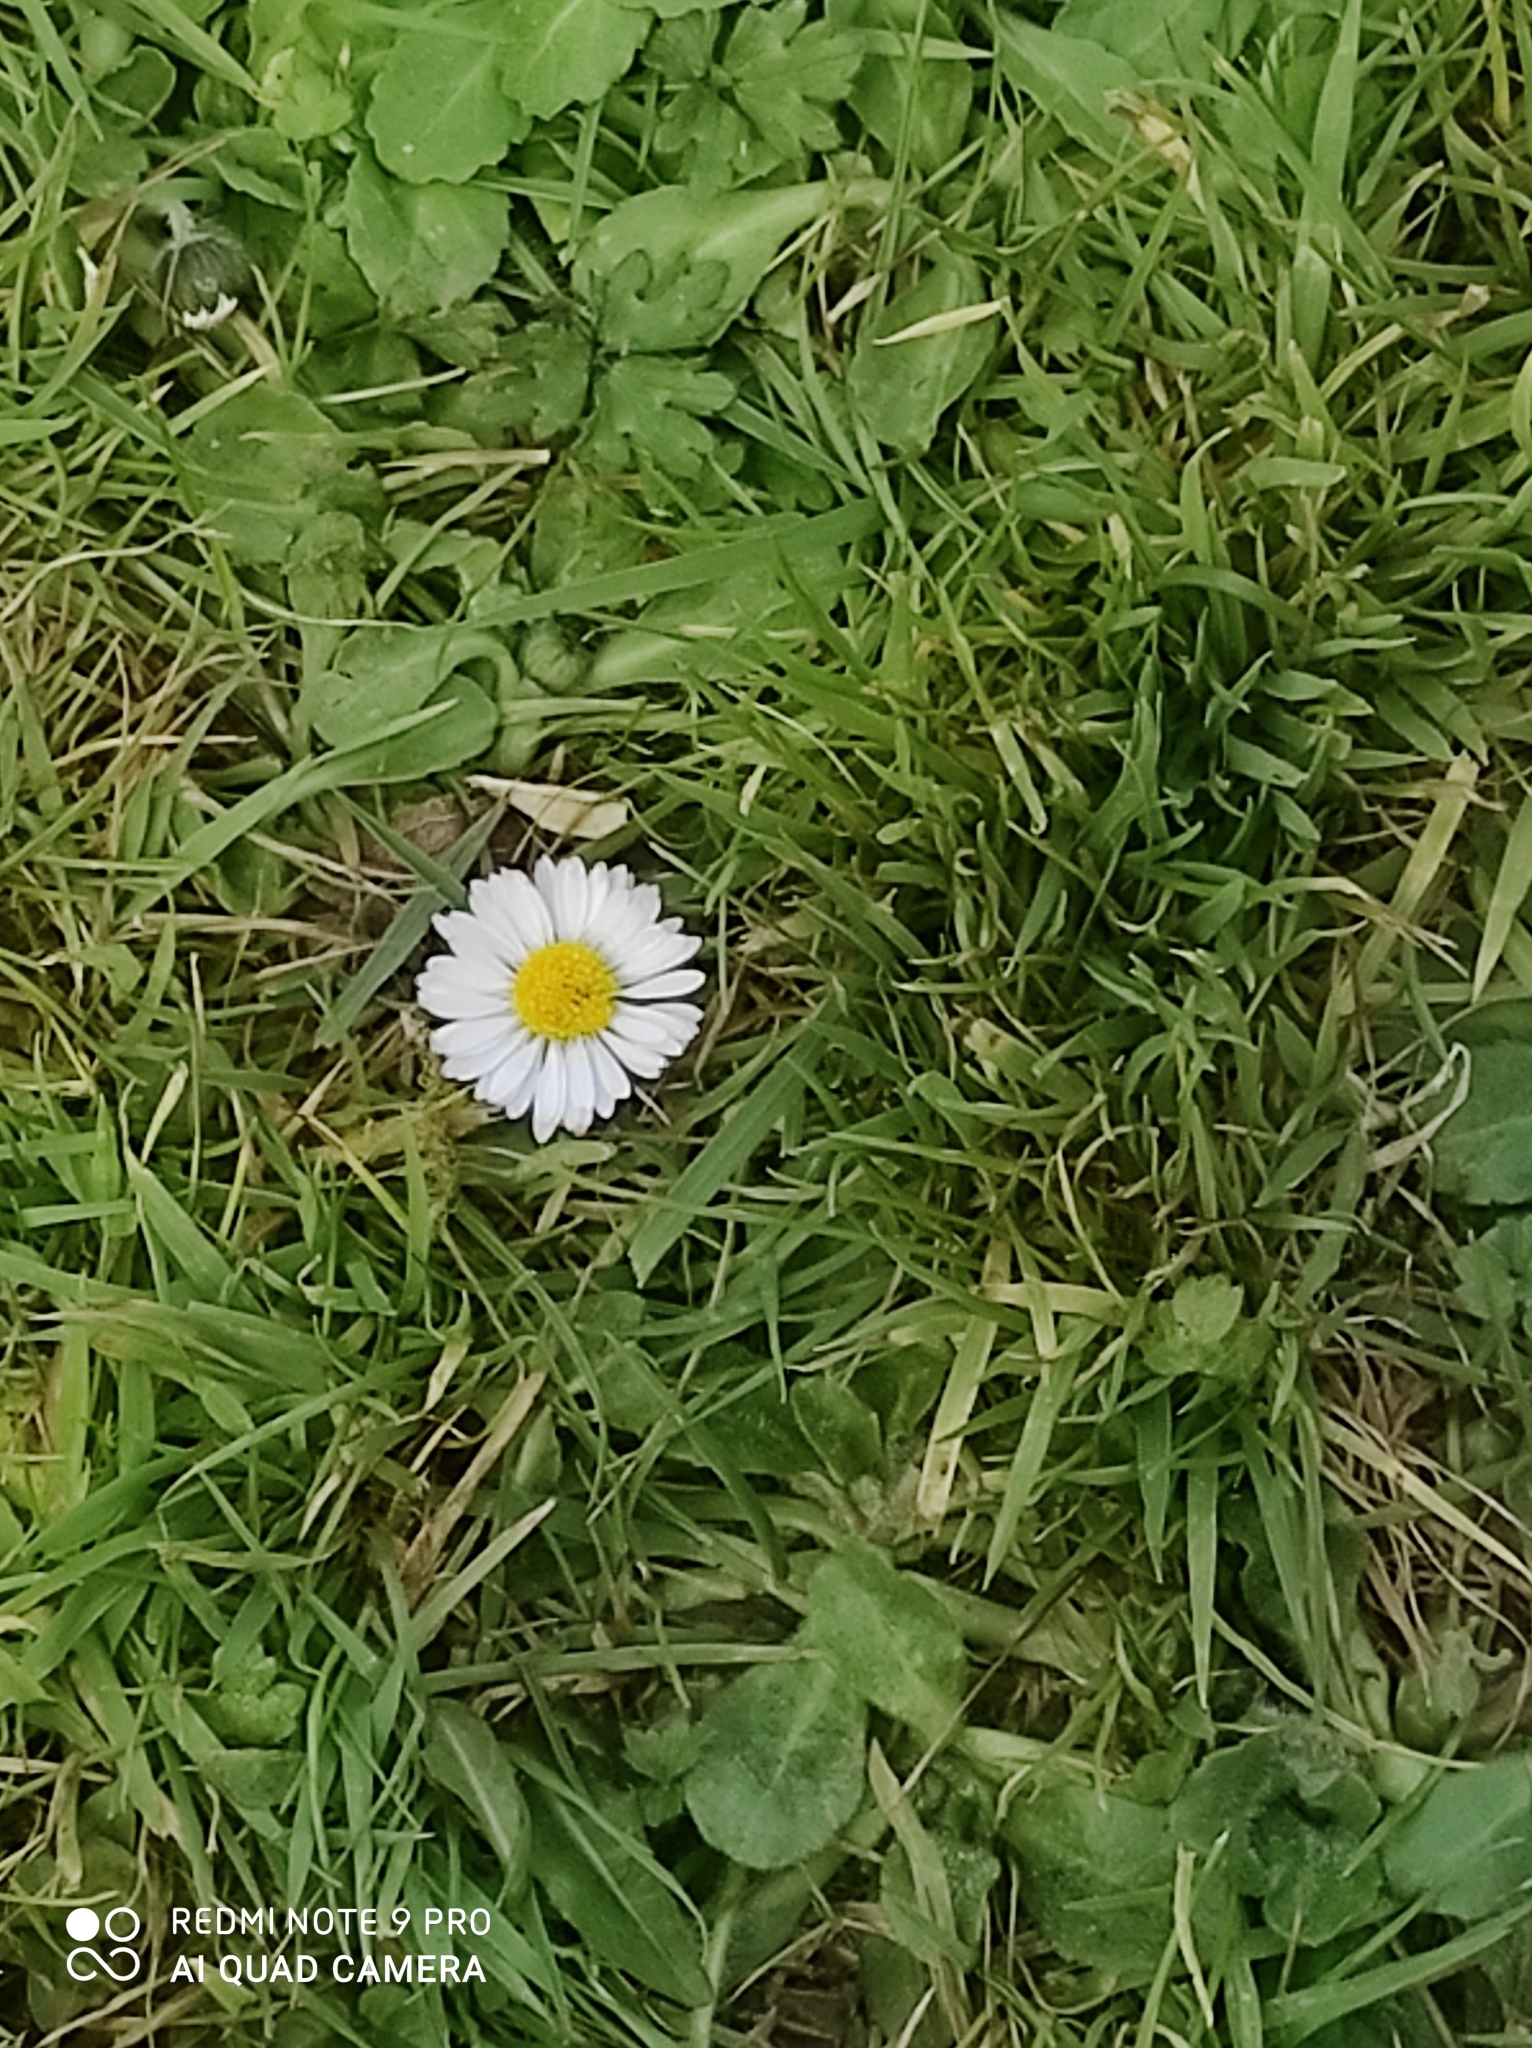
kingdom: Plantae
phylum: Tracheophyta
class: Magnoliopsida
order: Asterales
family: Asteraceae
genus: Bellis
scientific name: Bellis perennis
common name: Lawndaisy
